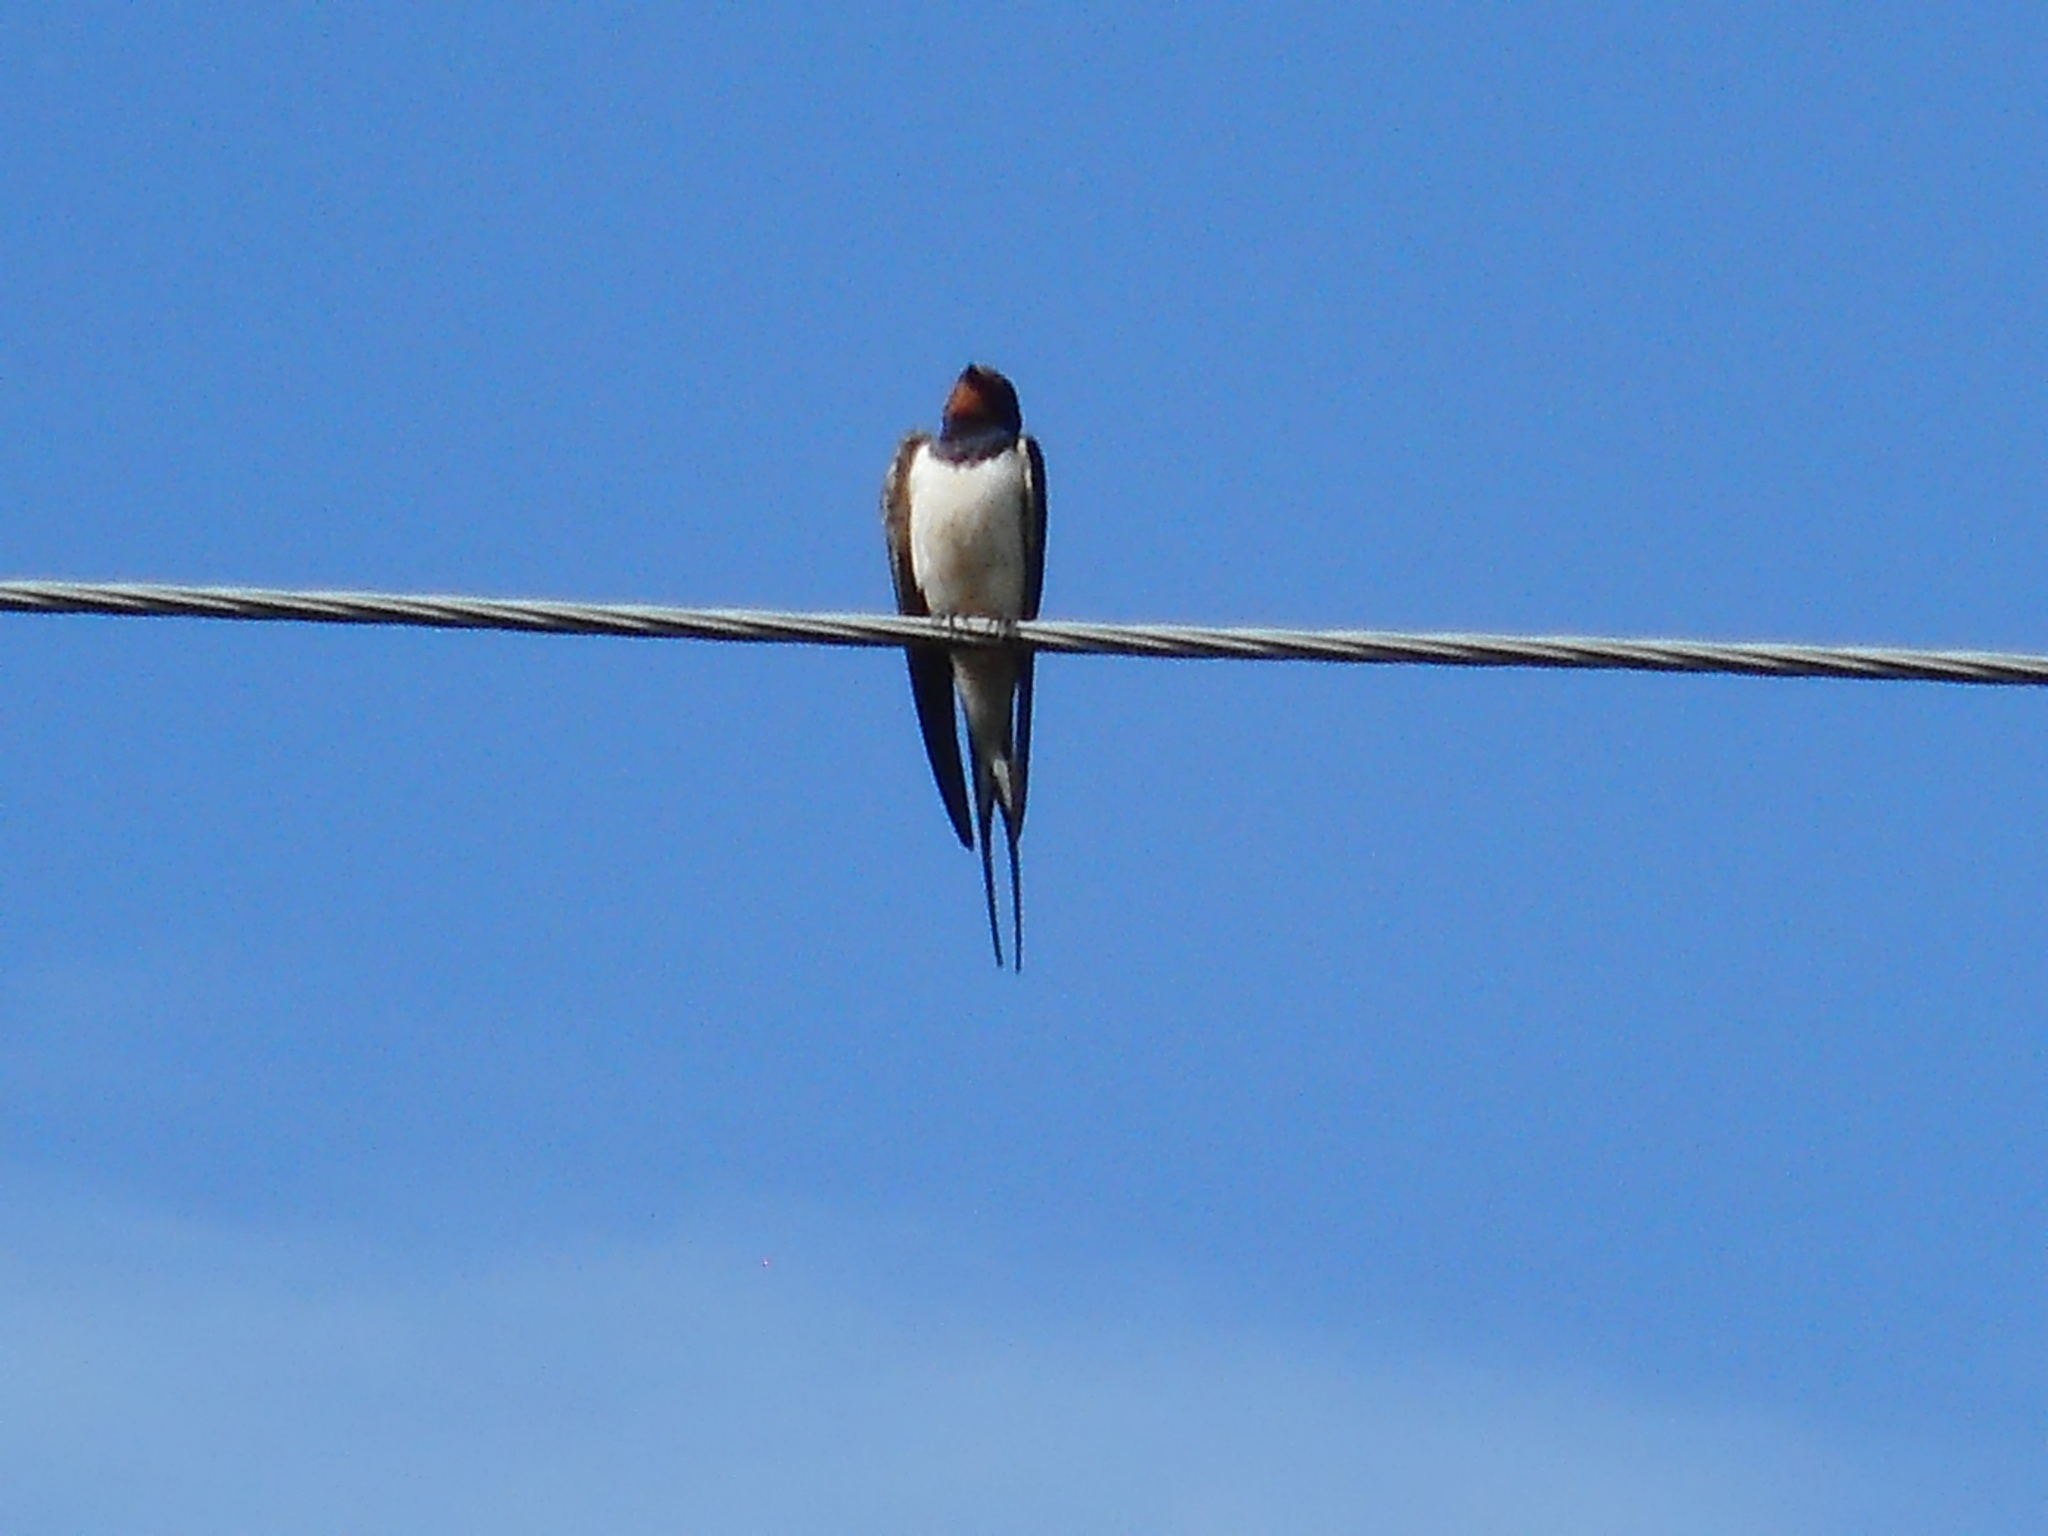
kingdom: Animalia
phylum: Chordata
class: Aves
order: Passeriformes
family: Hirundinidae
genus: Hirundo
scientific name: Hirundo rustica
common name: Barn swallow
